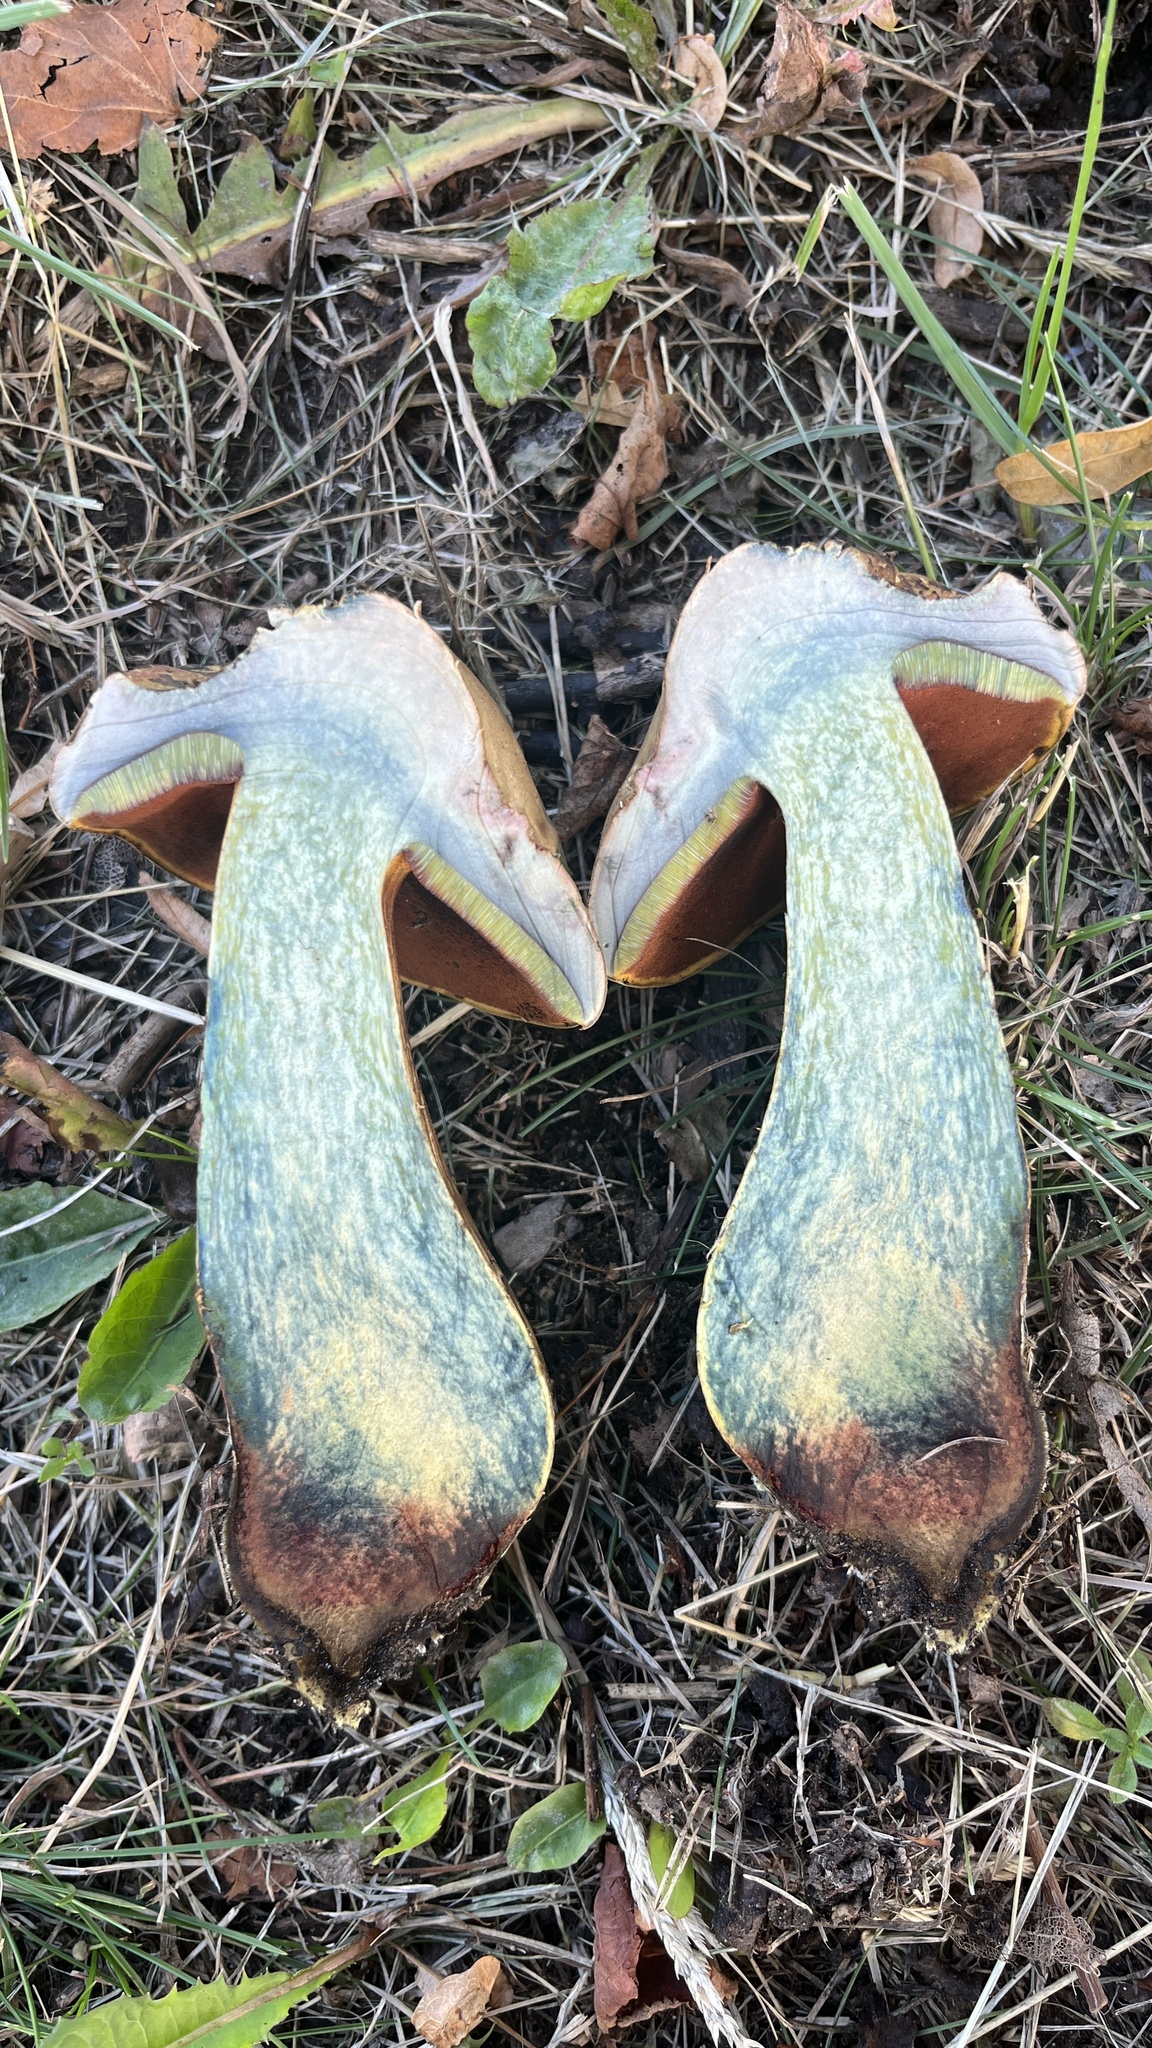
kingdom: Fungi
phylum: Basidiomycota
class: Agaricomycetes
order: Boletales
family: Boletaceae
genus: Suillellus
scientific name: Suillellus luridus
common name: Lurid bolete
